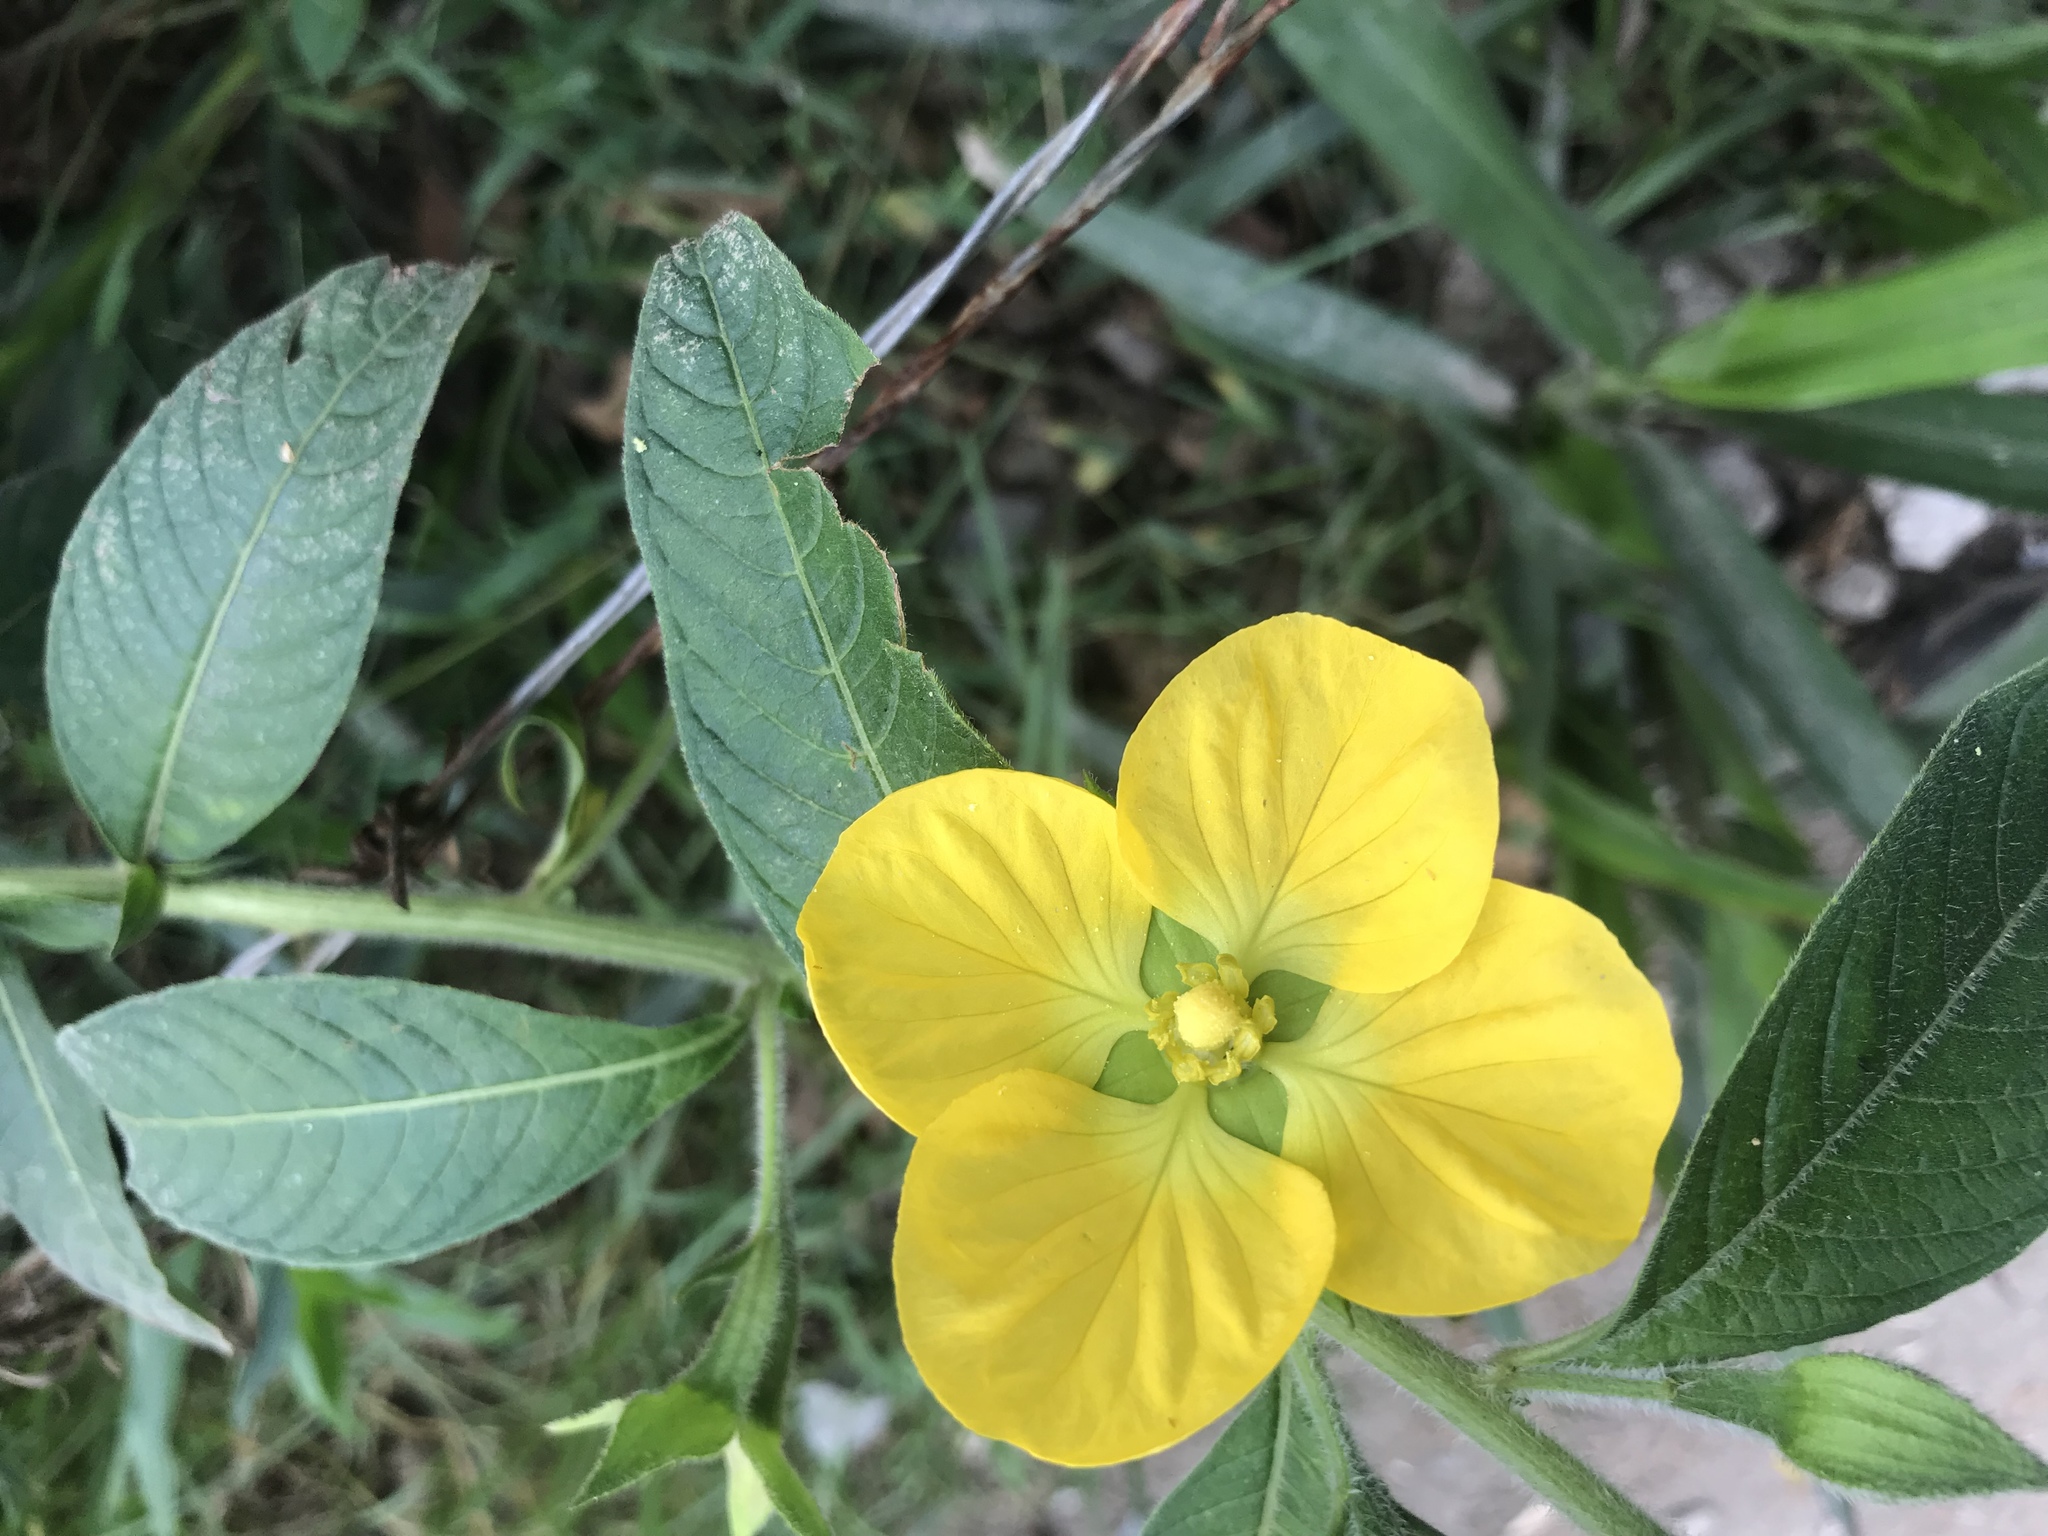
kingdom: Plantae
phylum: Tracheophyta
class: Magnoliopsida
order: Myrtales
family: Onagraceae
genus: Ludwigia
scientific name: Ludwigia peruviana
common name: Peruvian primrose-willow
